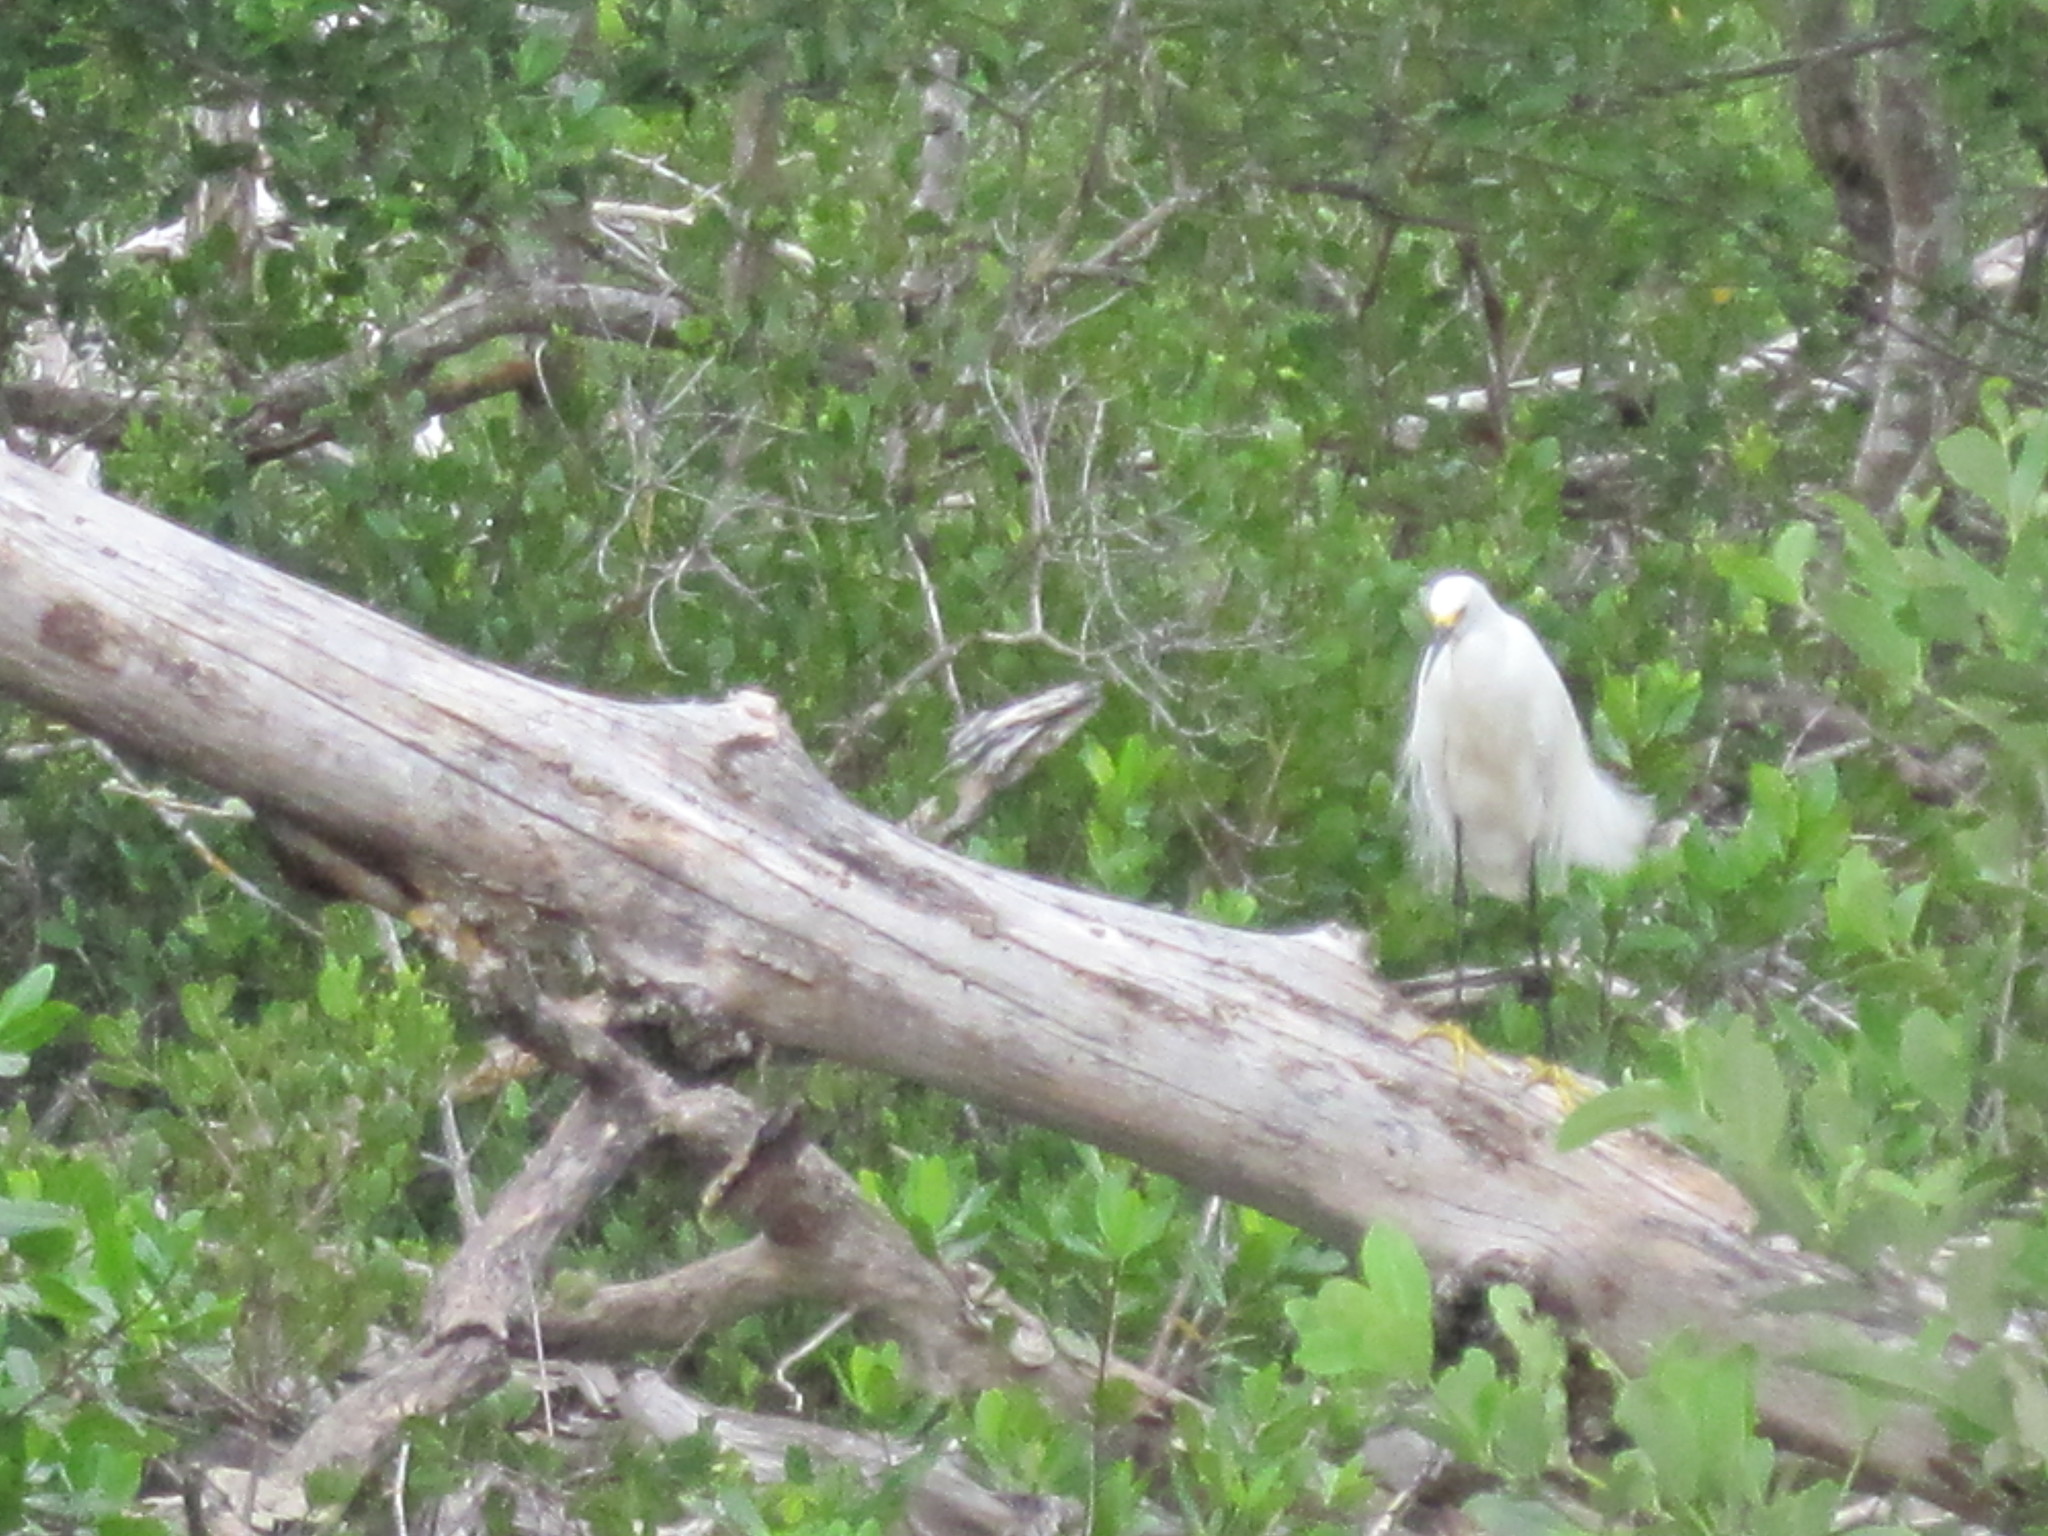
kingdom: Animalia
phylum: Chordata
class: Aves
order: Pelecaniformes
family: Ardeidae
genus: Egretta
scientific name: Egretta thula
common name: Snowy egret
